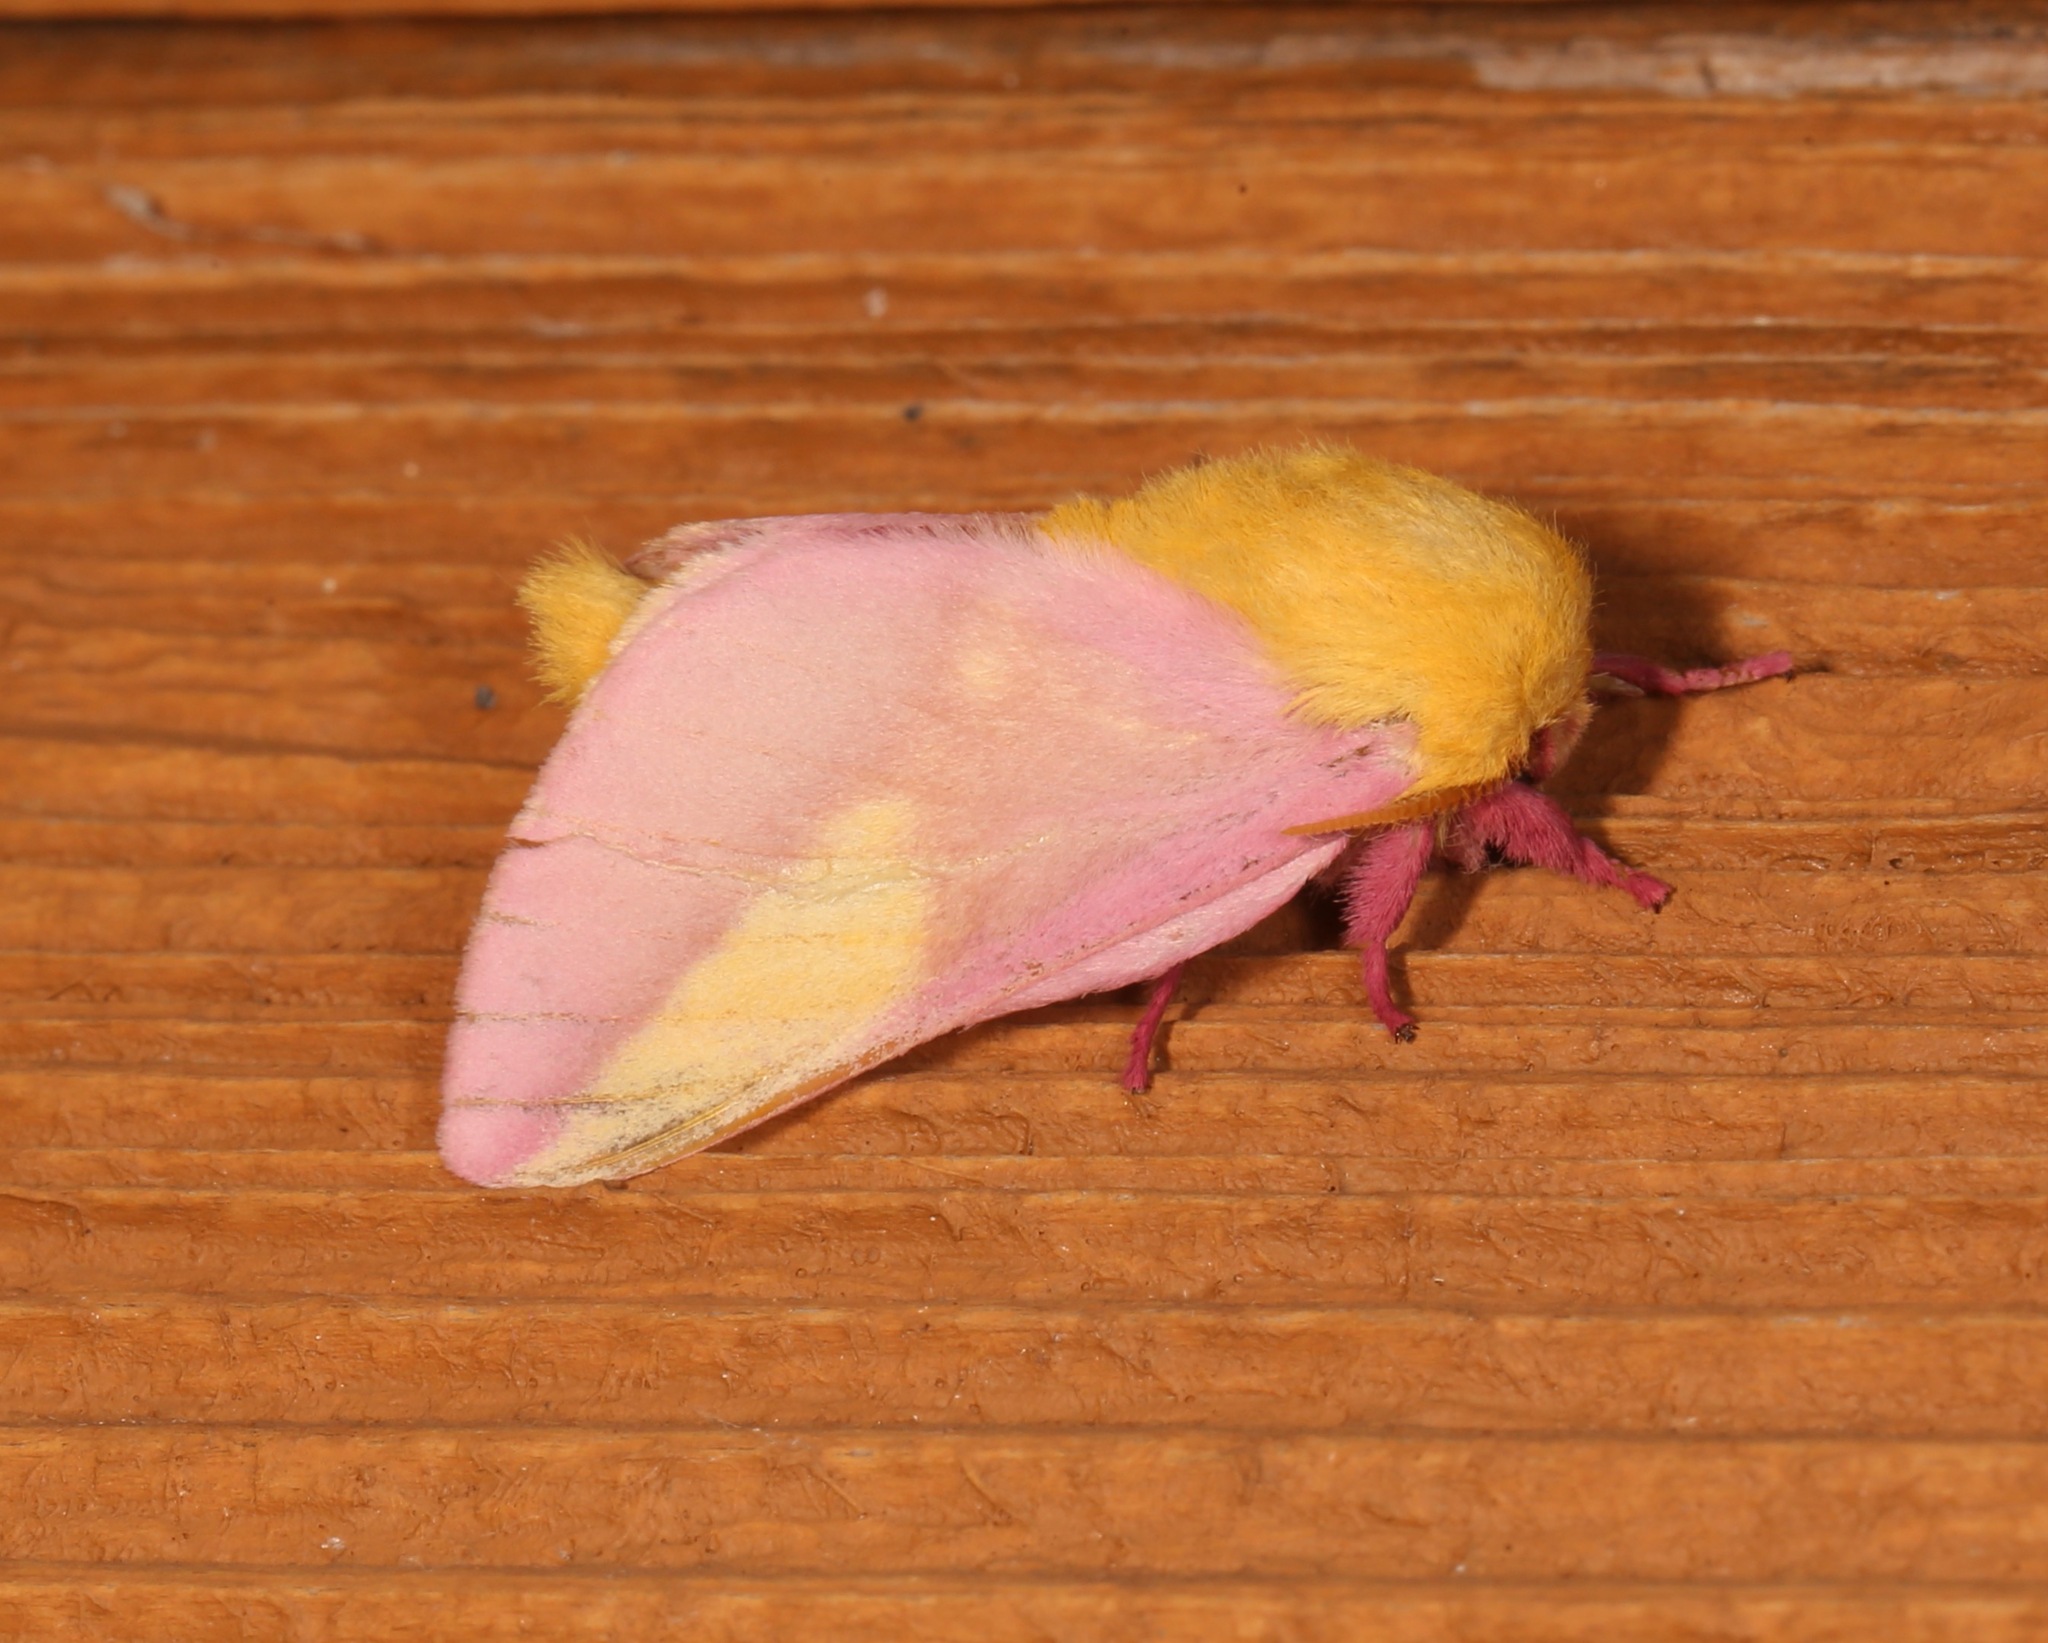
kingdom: Animalia
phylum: Arthropoda
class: Insecta
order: Lepidoptera
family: Saturniidae
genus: Dryocampa
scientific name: Dryocampa rubicunda
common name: Rosy maple moth
